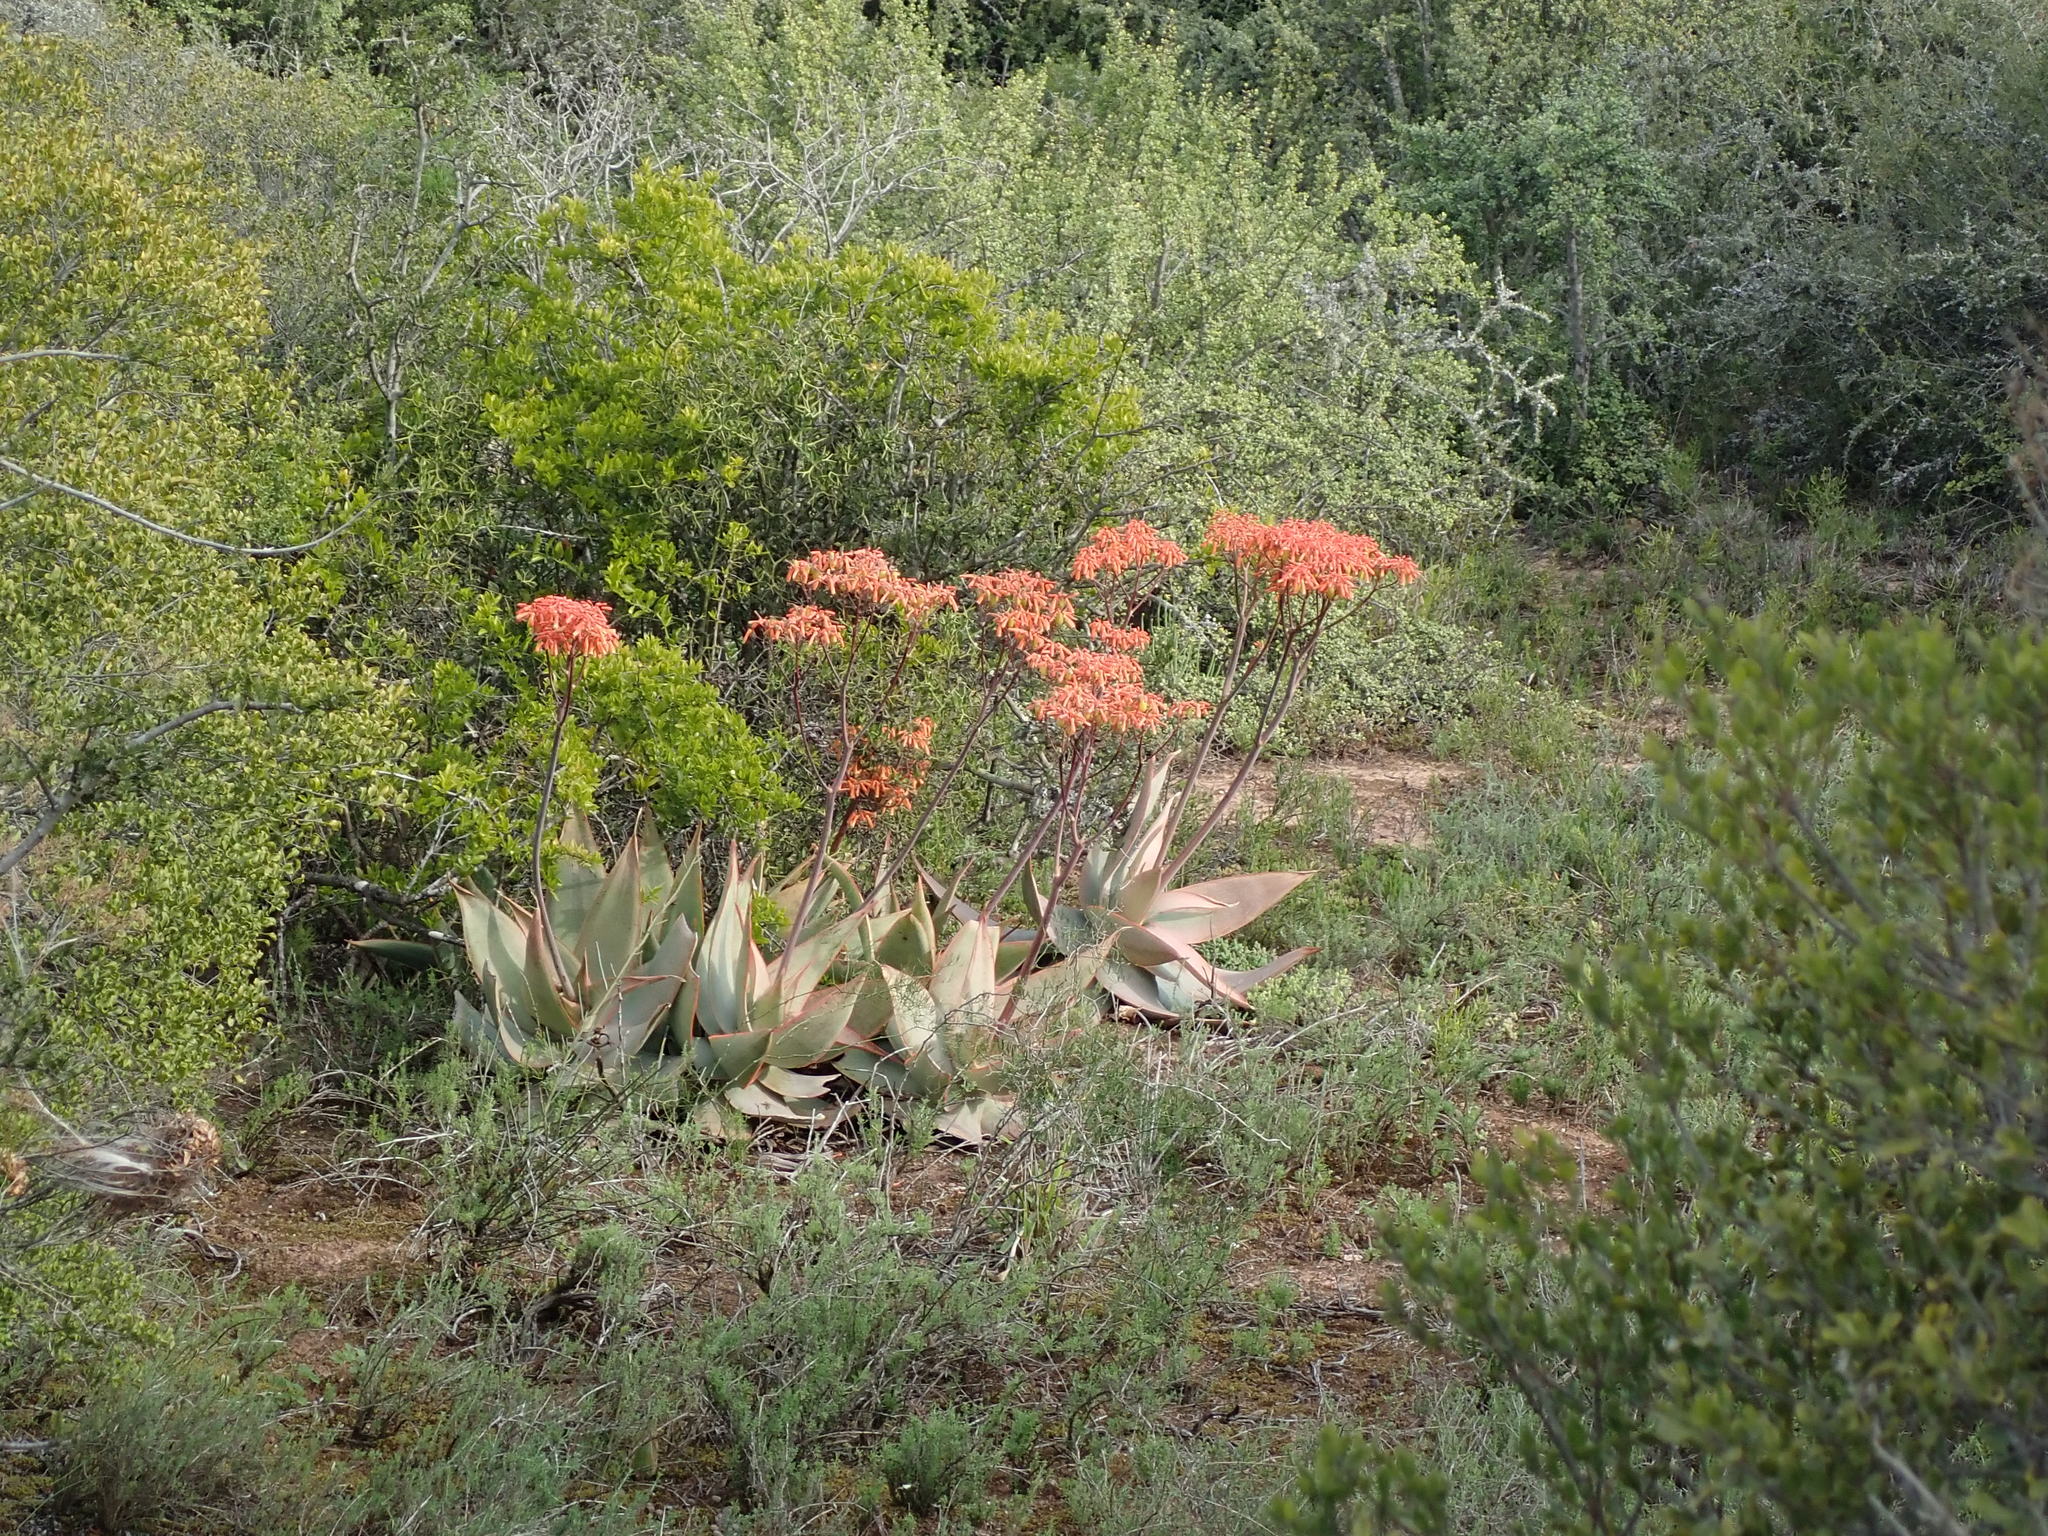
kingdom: Plantae
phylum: Tracheophyta
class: Liliopsida
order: Asparagales
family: Asphodelaceae
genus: Aloe
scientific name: Aloe striata
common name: Coral aloe
